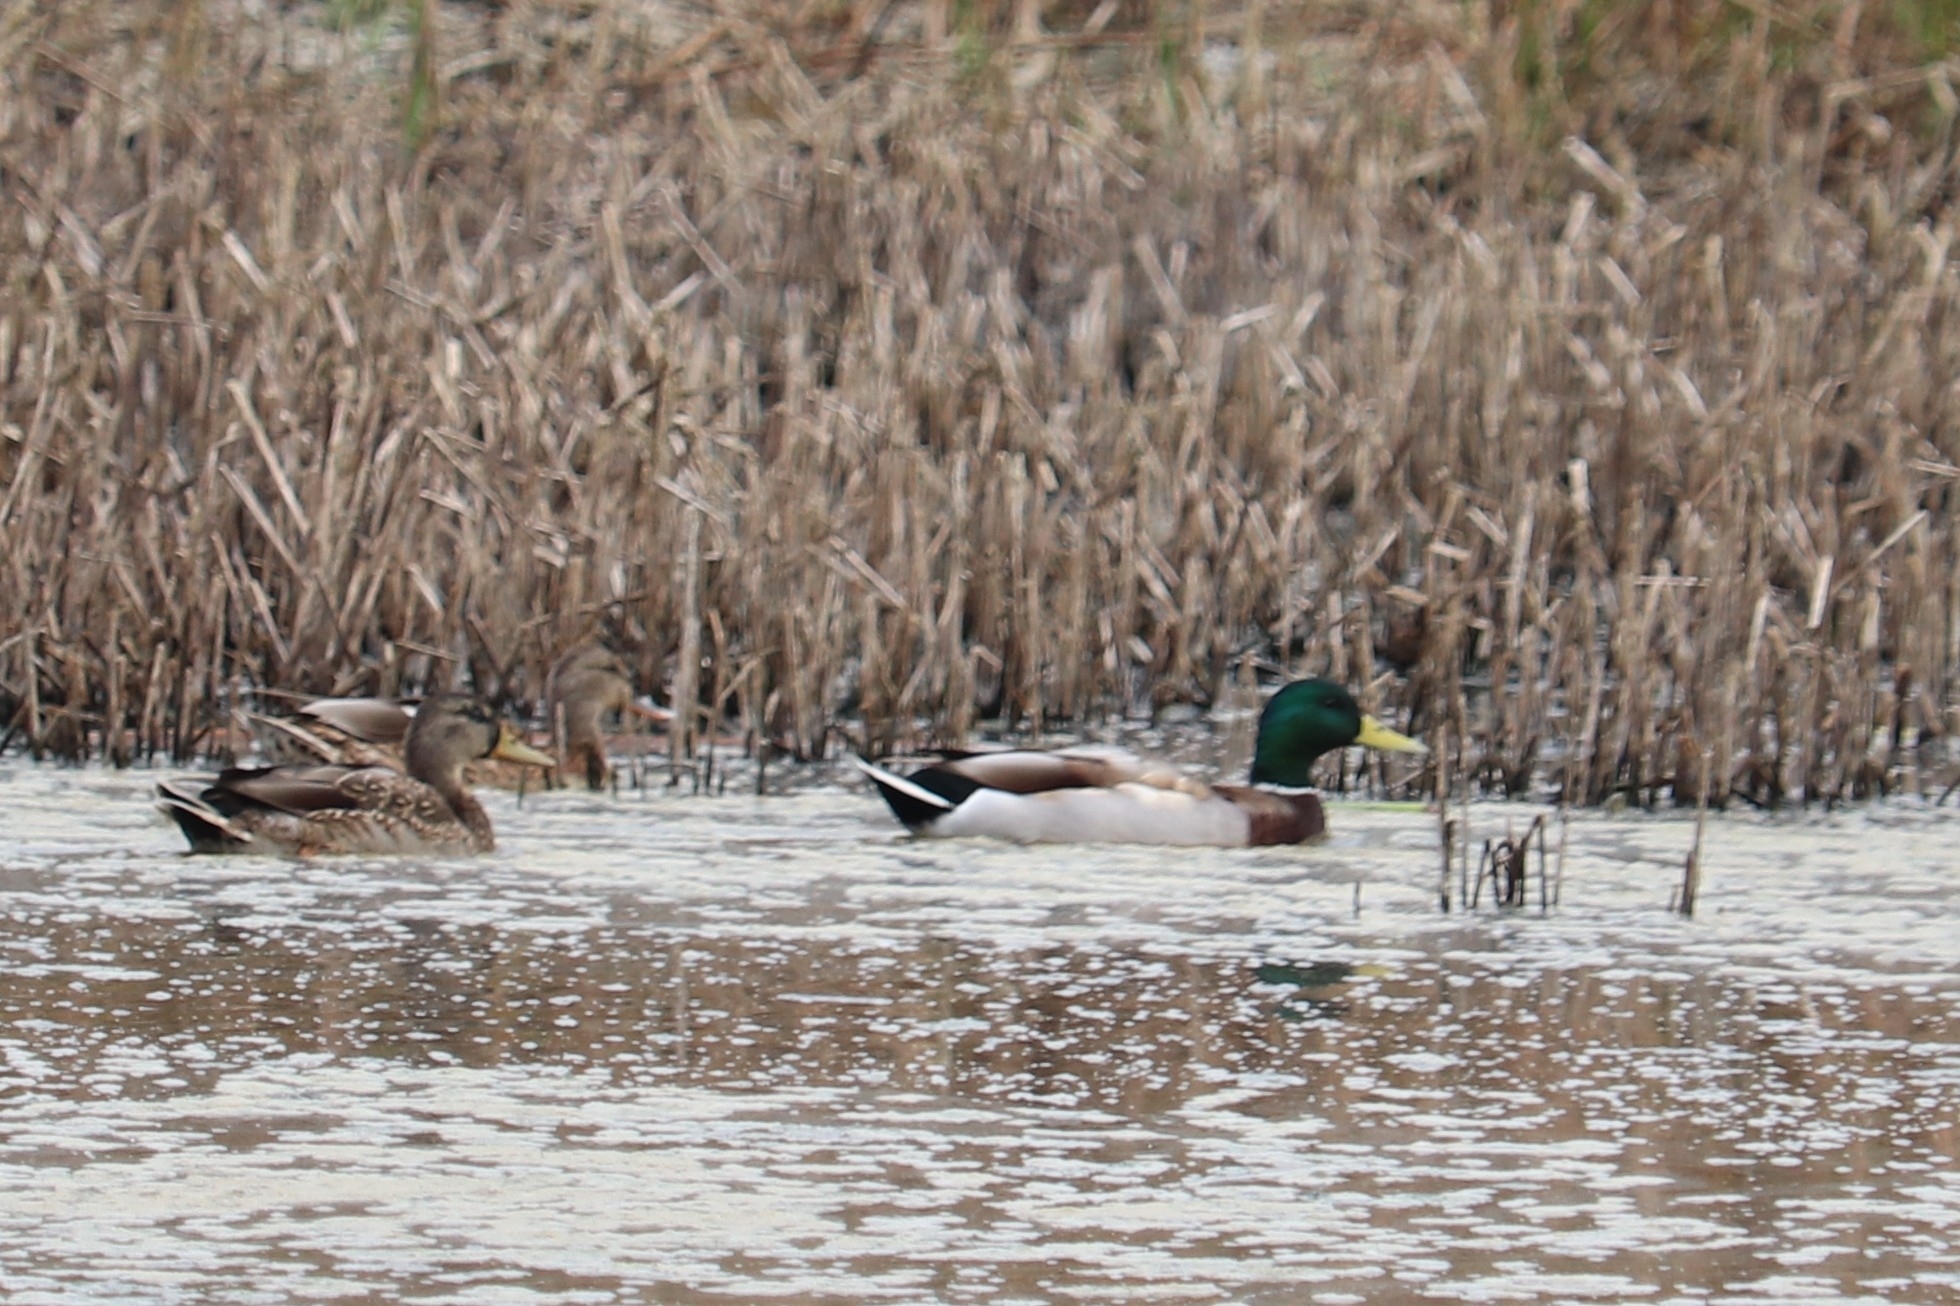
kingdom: Animalia
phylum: Chordata
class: Aves
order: Anseriformes
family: Anatidae
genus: Anas
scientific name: Anas platyrhynchos
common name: Mallard
